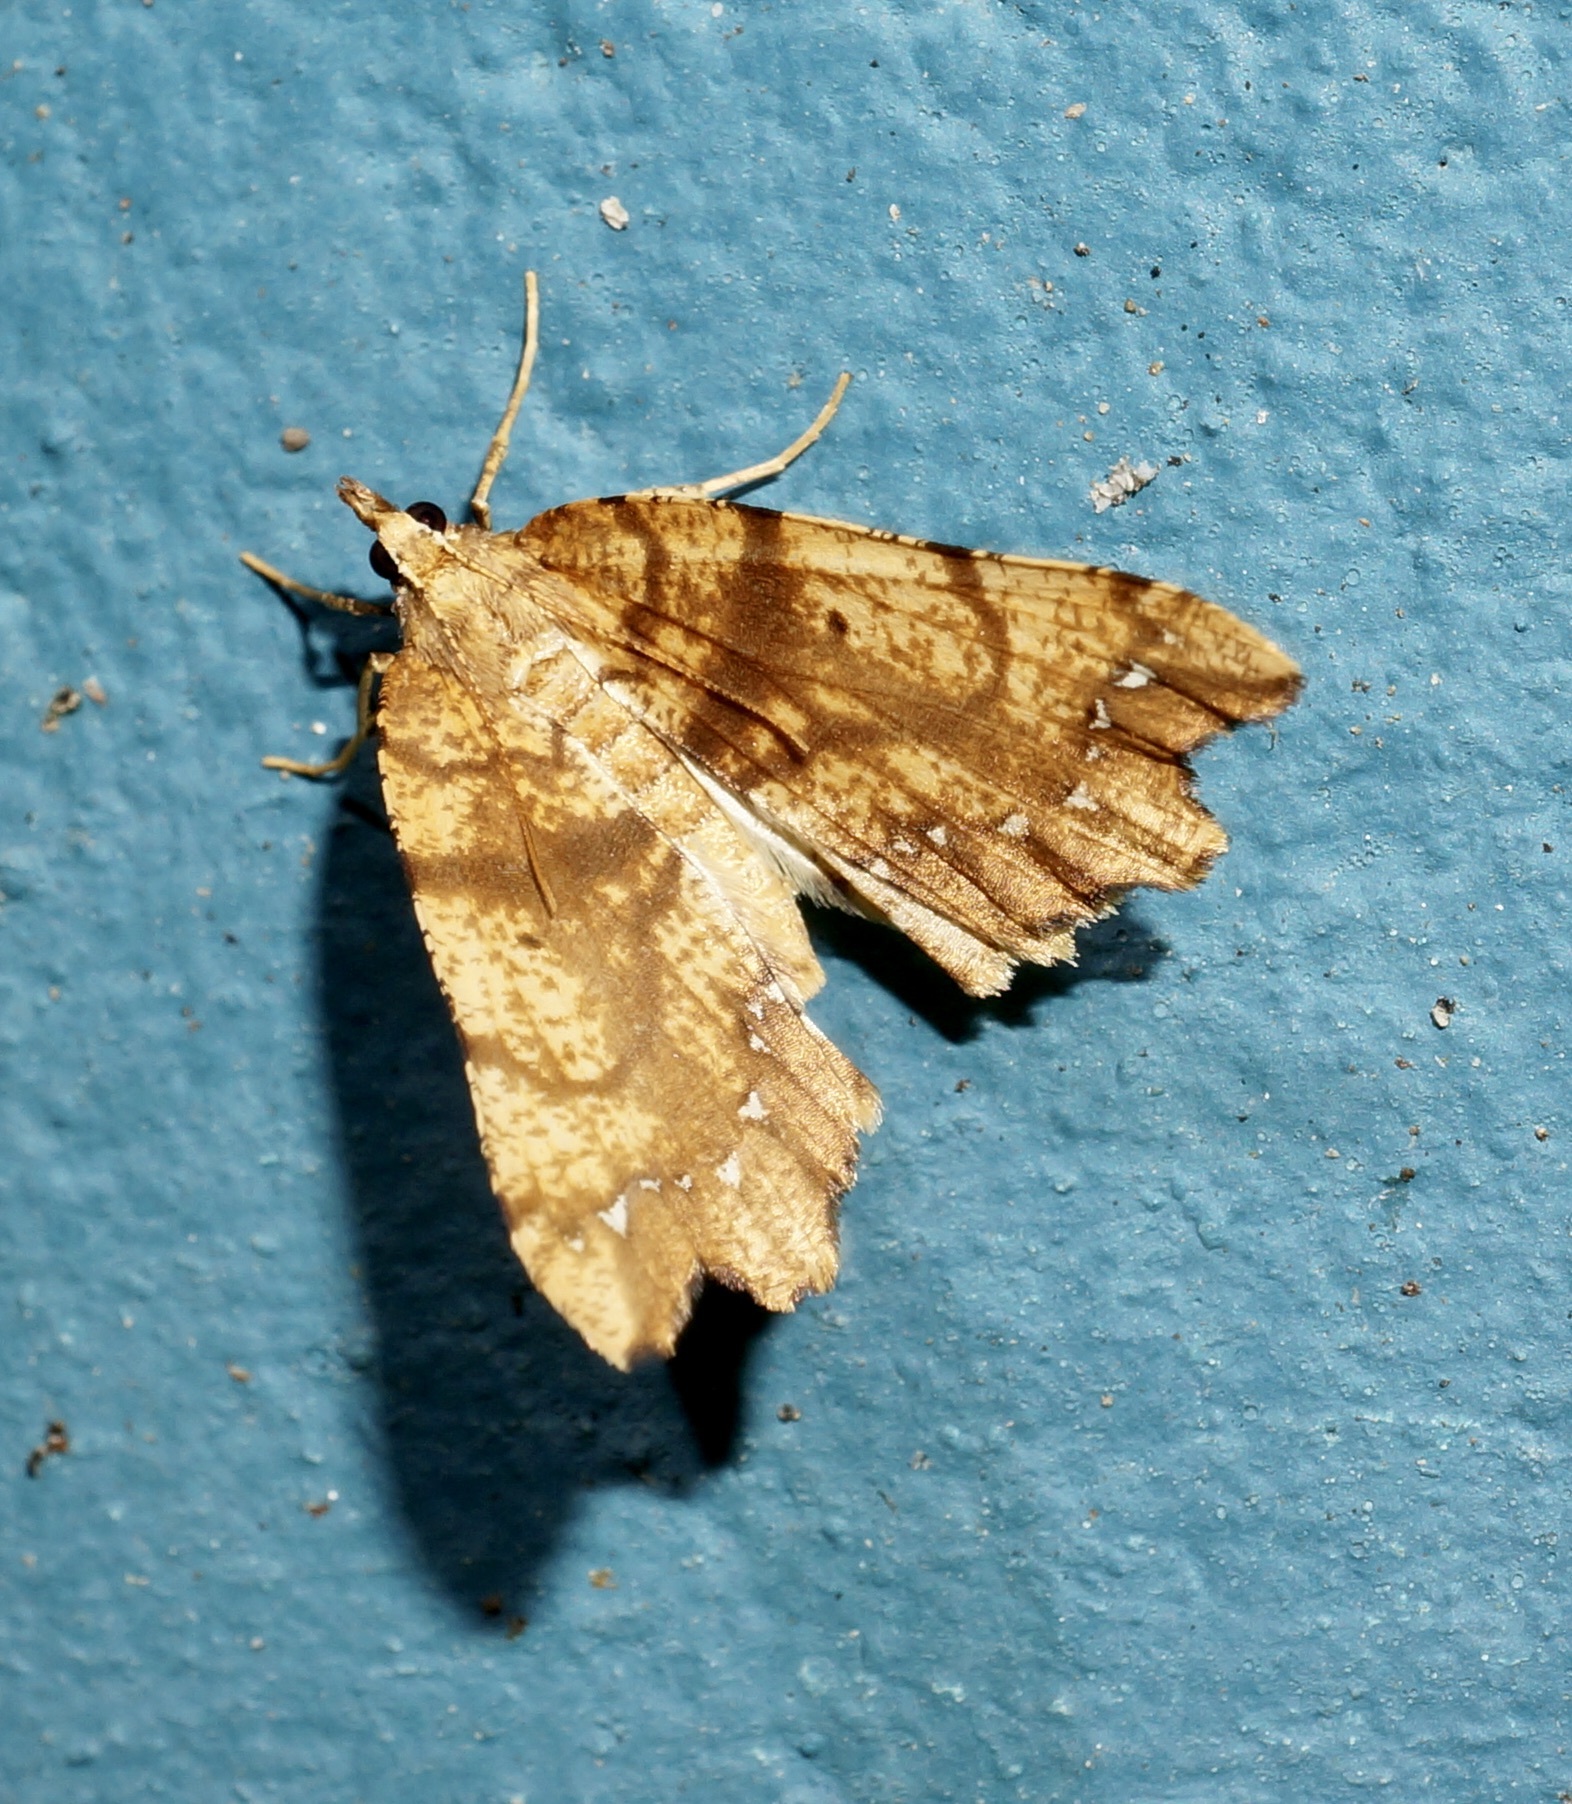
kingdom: Animalia
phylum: Arthropoda
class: Insecta
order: Lepidoptera
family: Geometridae
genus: Chalastra
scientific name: Chalastra pellurgata
